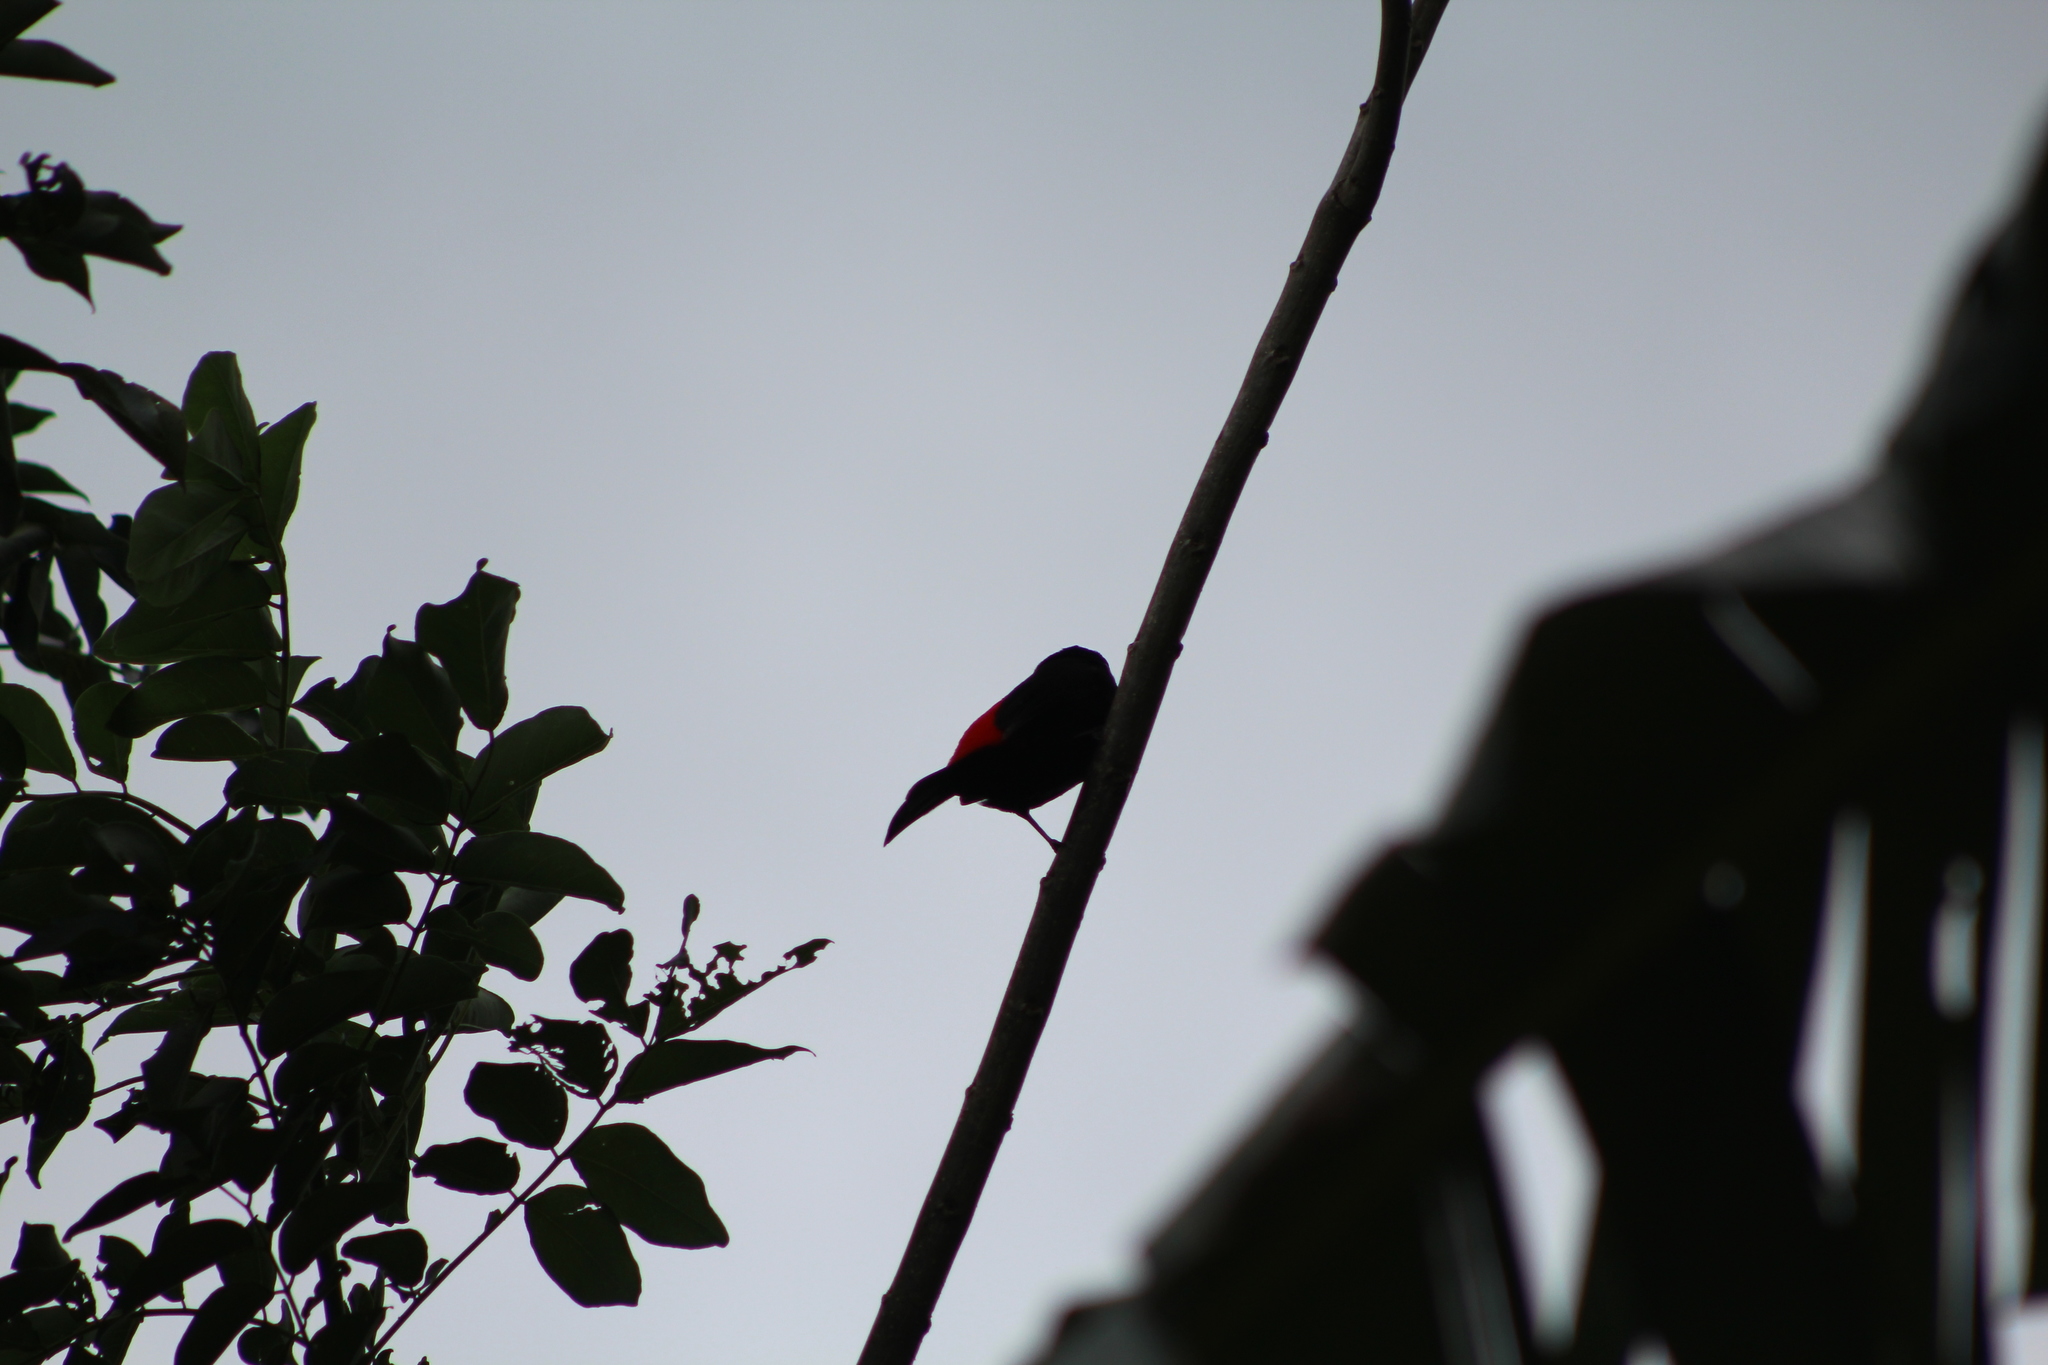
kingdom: Animalia
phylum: Chordata
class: Aves
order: Passeriformes
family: Thraupidae
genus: Ramphocelus
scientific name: Ramphocelus passerinii
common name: Passerini's tanager
